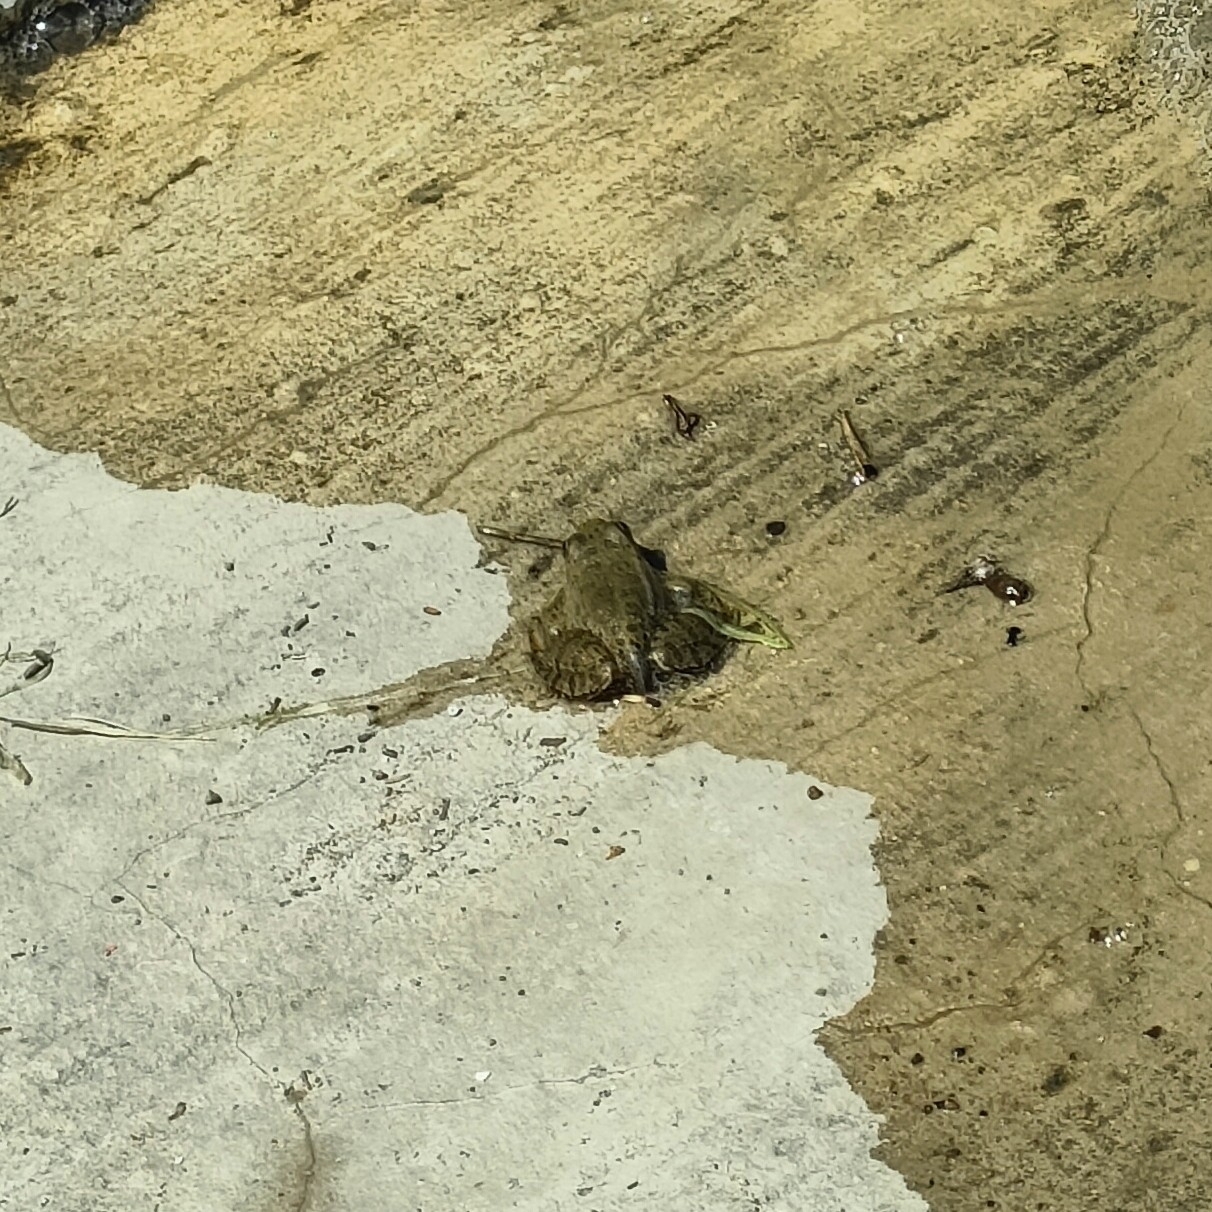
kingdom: Animalia
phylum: Chordata
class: Amphibia
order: Anura
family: Ranidae
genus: Pelophylax
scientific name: Pelophylax ridibundus
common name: Marsh frog
